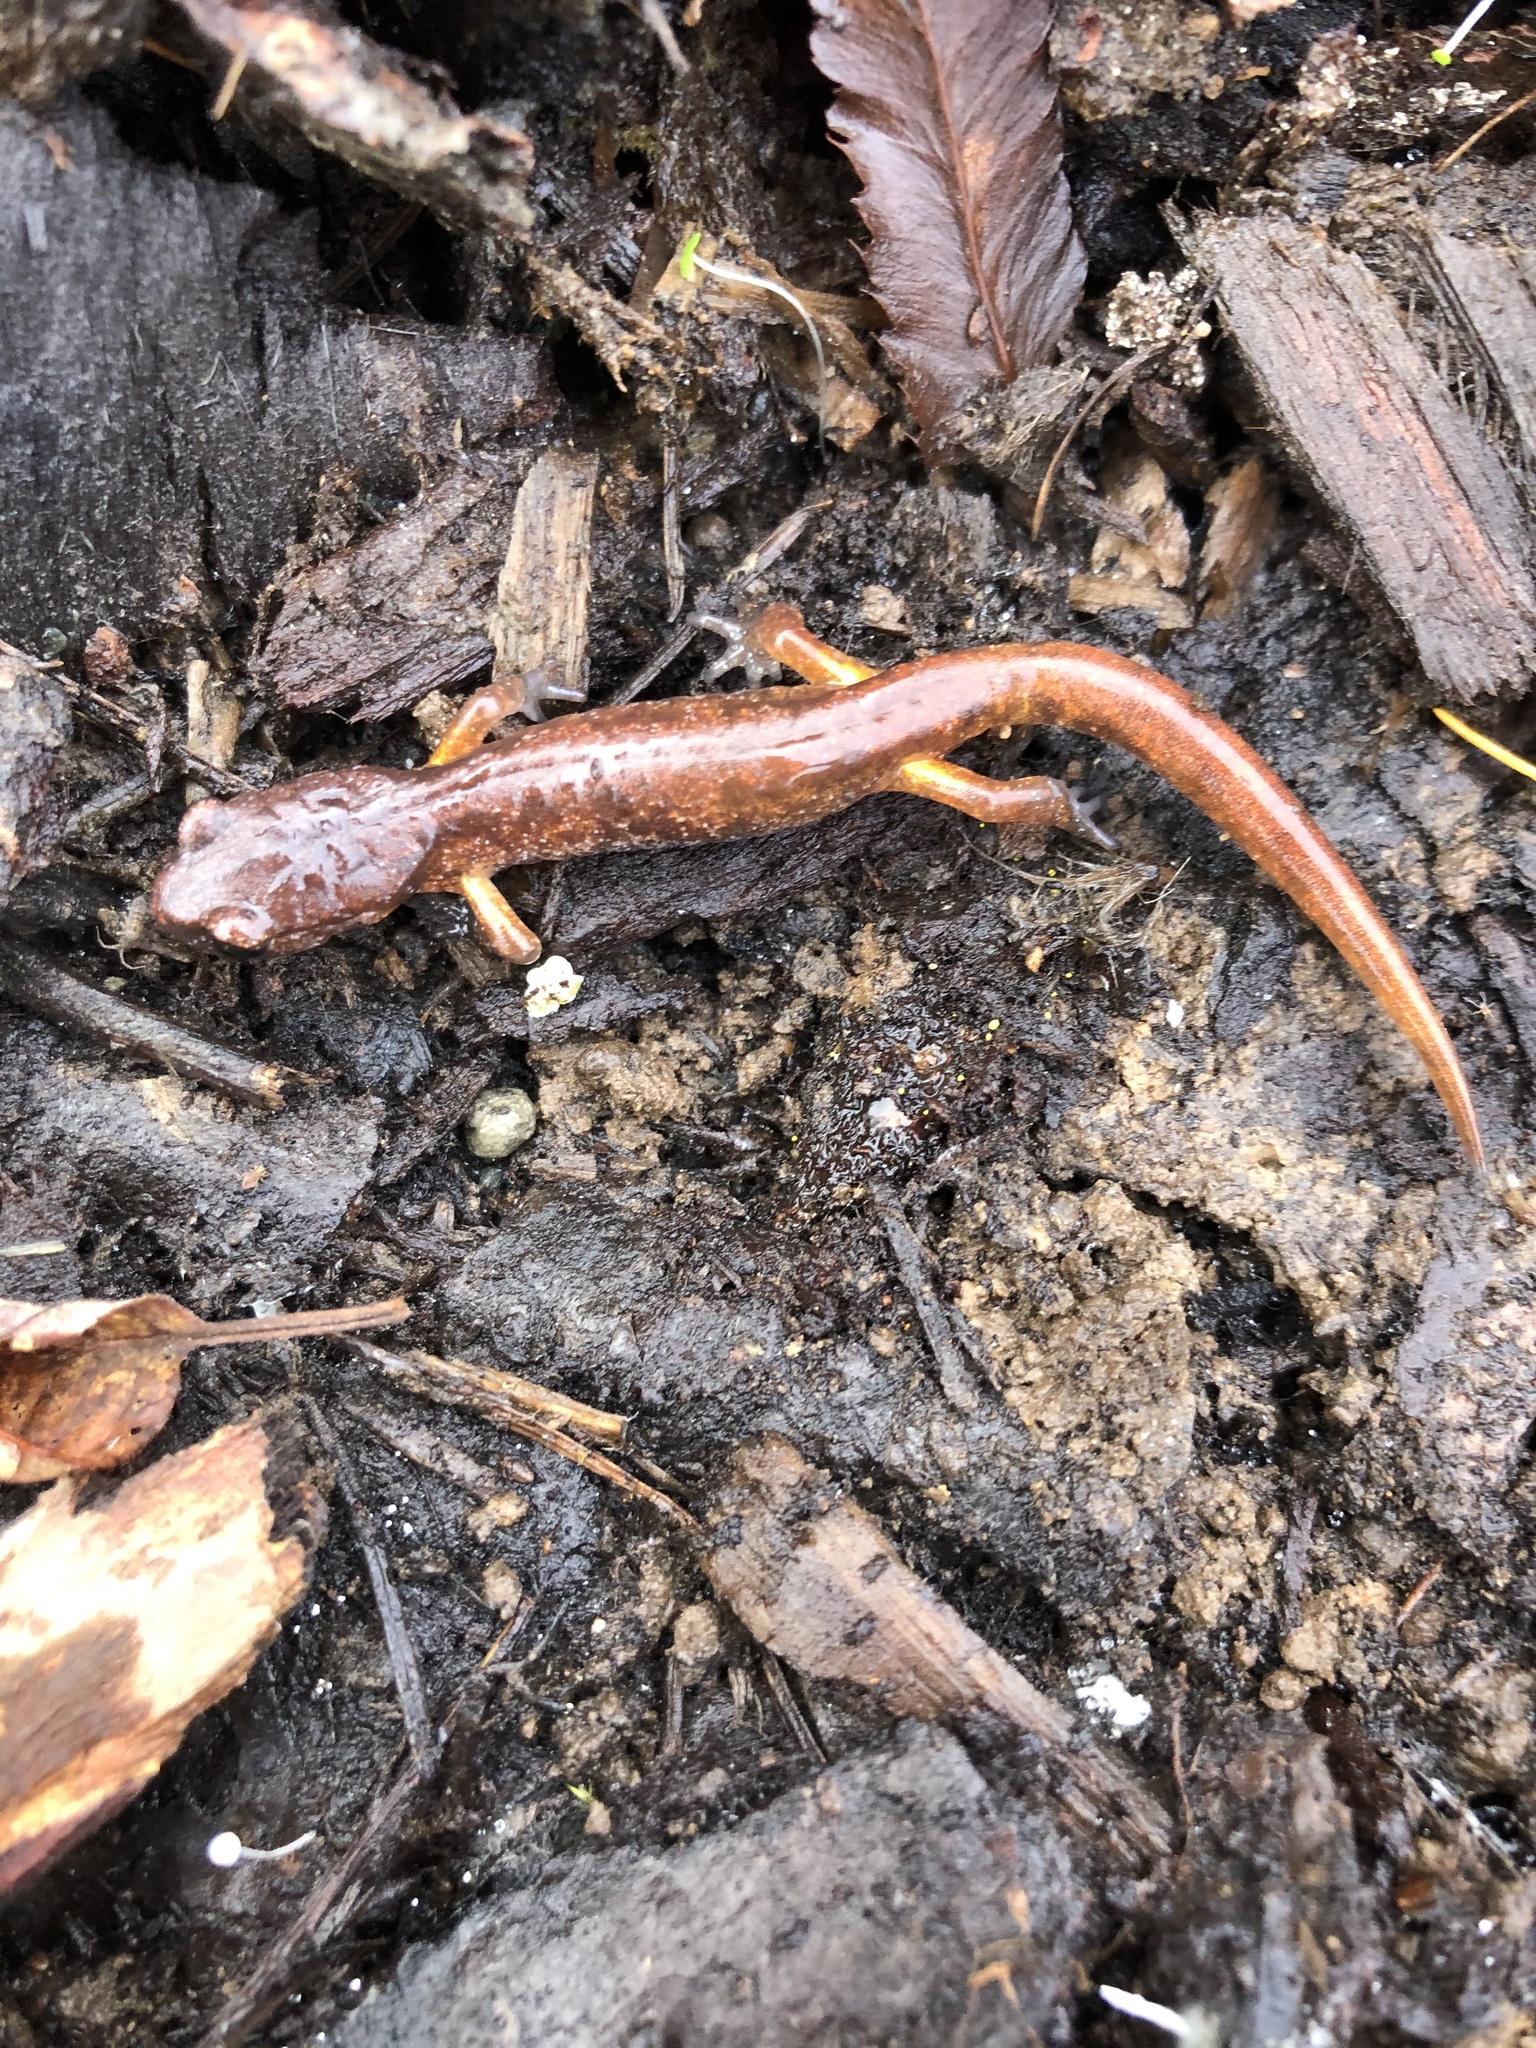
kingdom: Animalia
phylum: Chordata
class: Amphibia
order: Caudata
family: Plethodontidae
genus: Ensatina
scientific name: Ensatina eschscholtzii
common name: Ensatina
